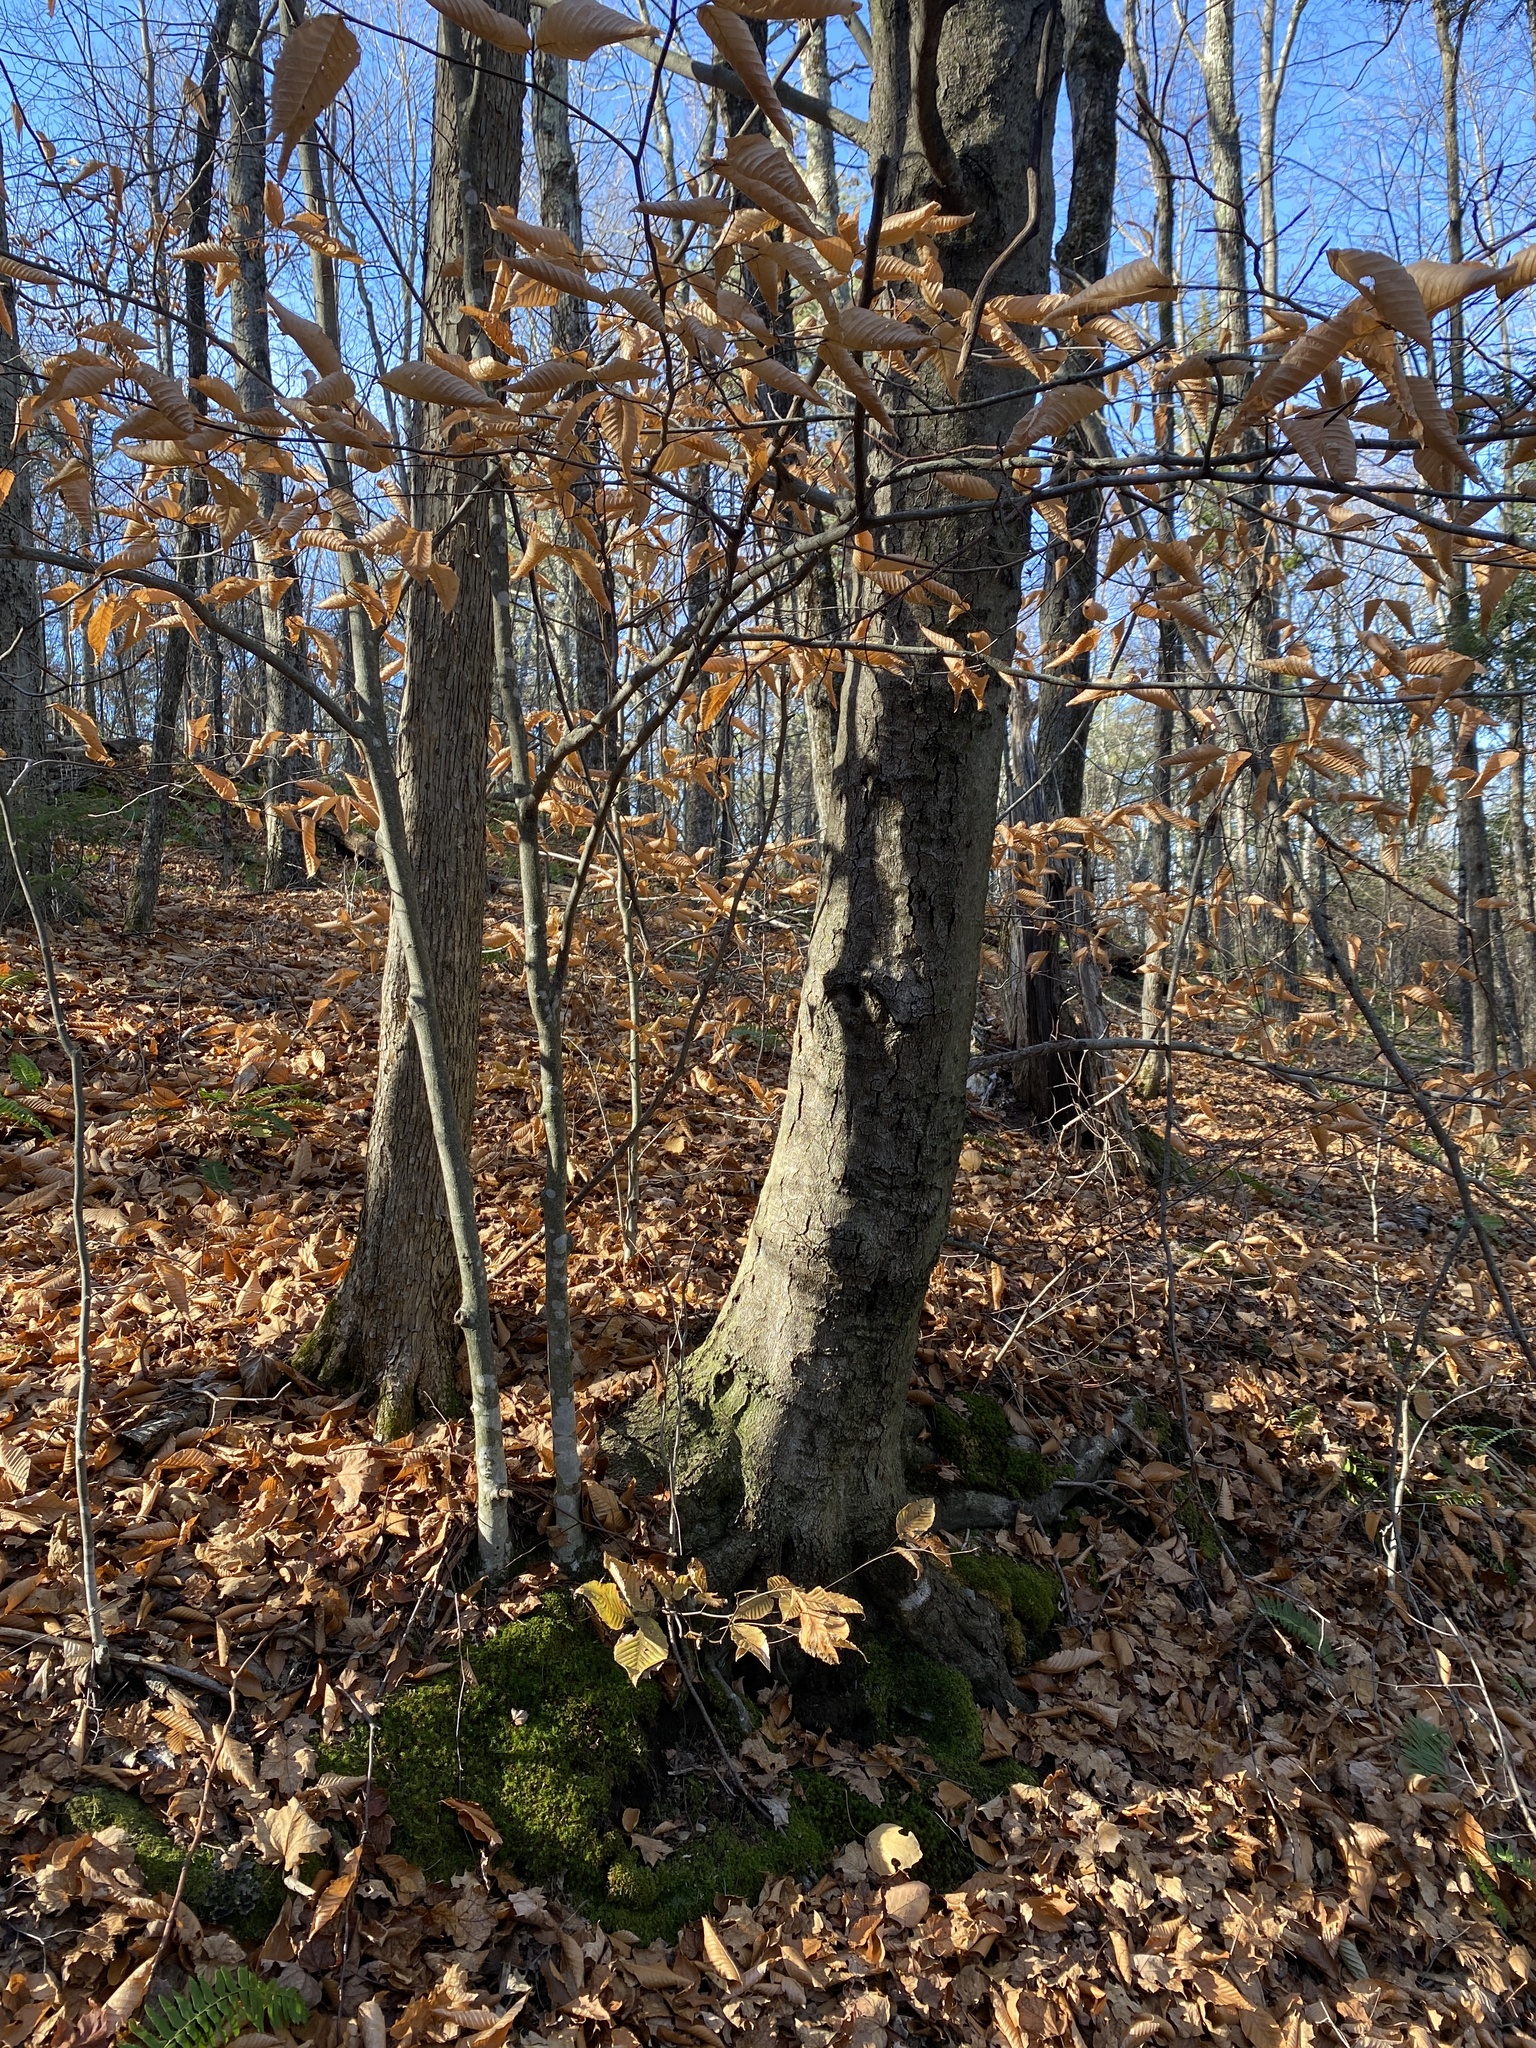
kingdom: Plantae
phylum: Tracheophyta
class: Magnoliopsida
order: Fagales
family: Fagaceae
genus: Fagus
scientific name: Fagus grandifolia
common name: American beech
